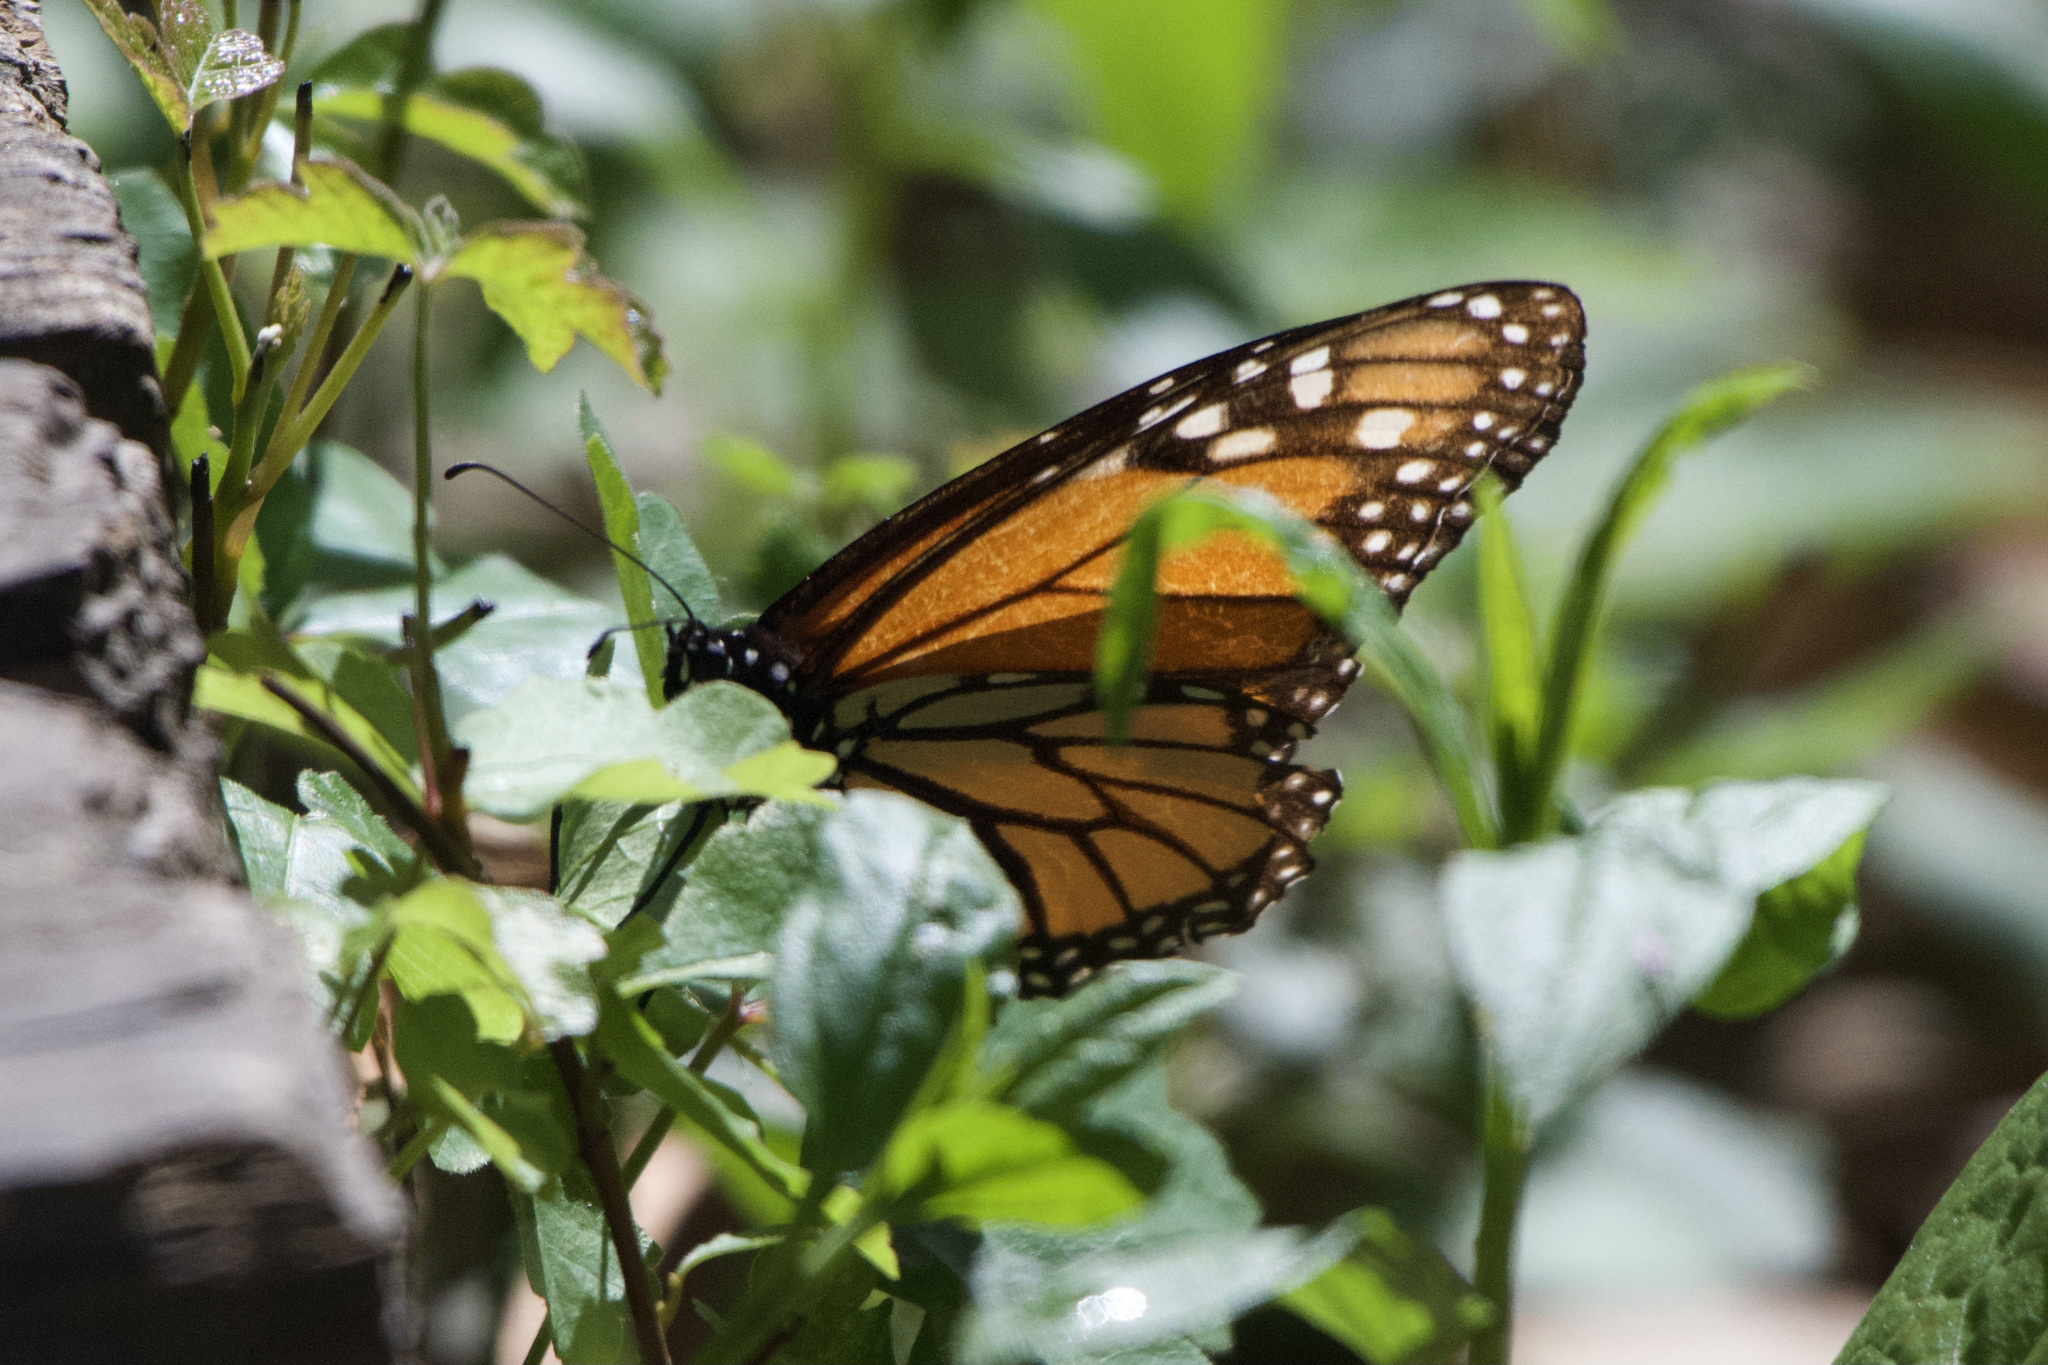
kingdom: Animalia
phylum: Arthropoda
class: Insecta
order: Lepidoptera
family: Nymphalidae
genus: Danaus
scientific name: Danaus plexippus
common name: Monarch
